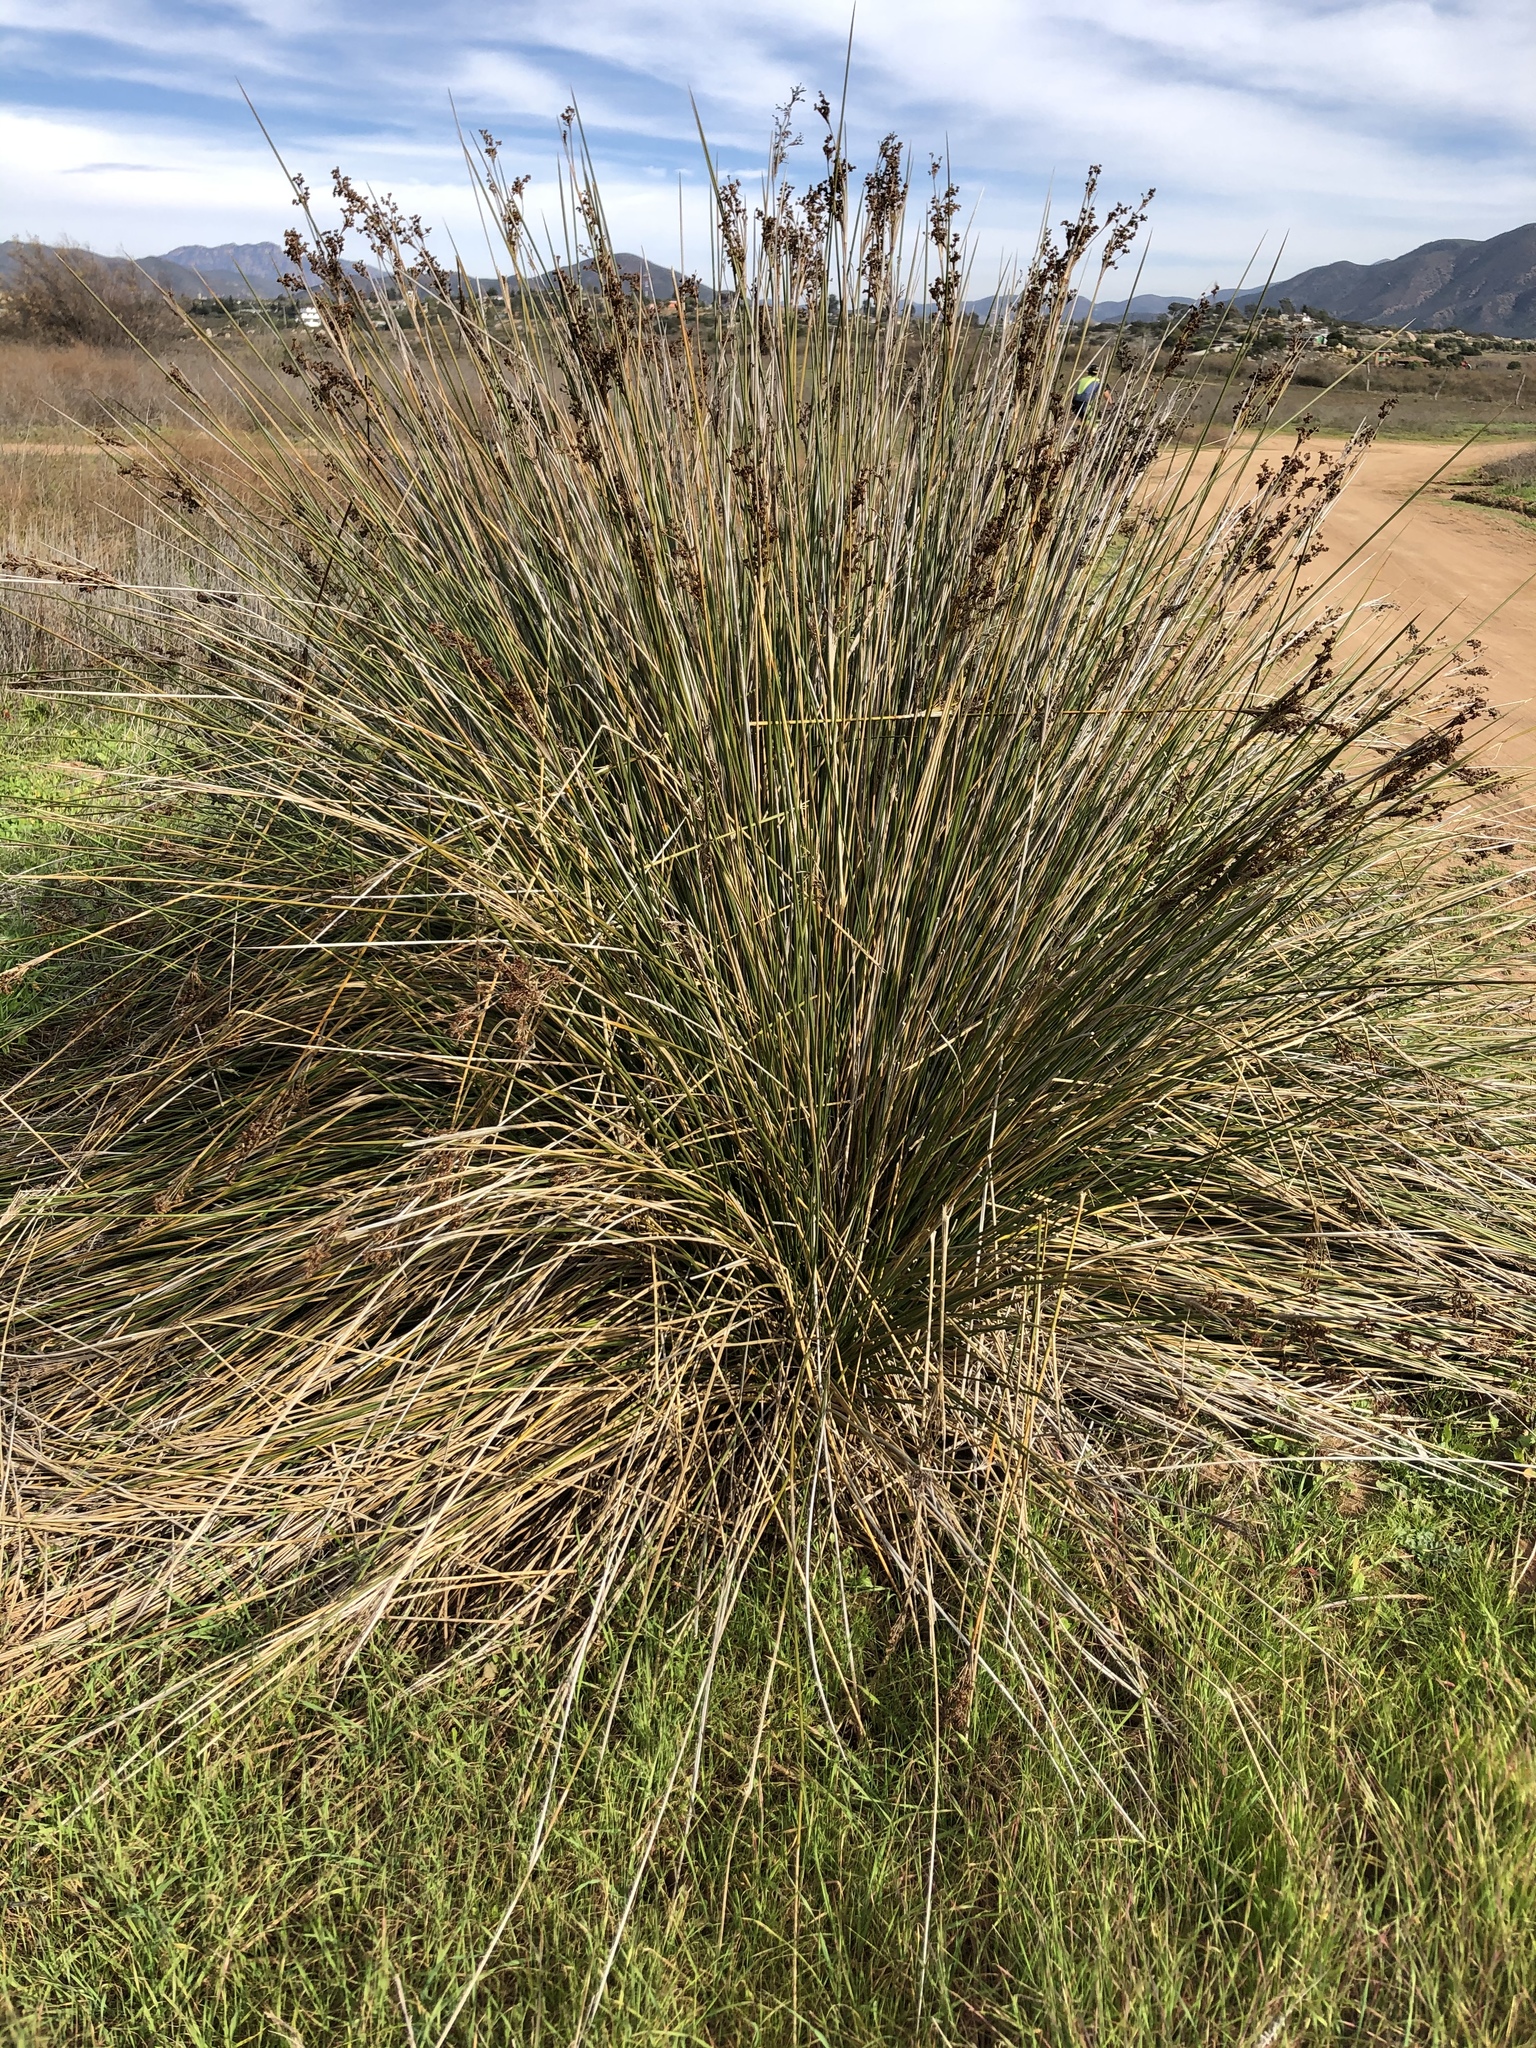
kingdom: Plantae
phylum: Tracheophyta
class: Liliopsida
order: Poales
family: Juncaceae
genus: Juncus
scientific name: Juncus acutus
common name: Sharp rush
